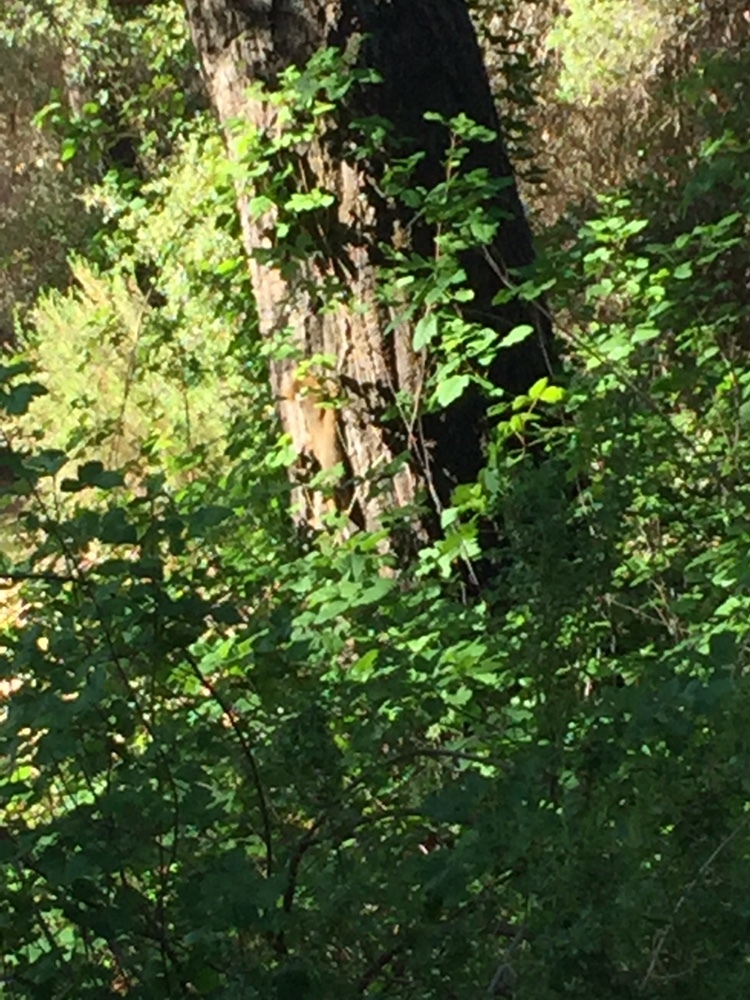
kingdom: Animalia
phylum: Chordata
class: Mammalia
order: Rodentia
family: Sciuridae
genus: Sciurus
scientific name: Sciurus niger
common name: Fox squirrel
